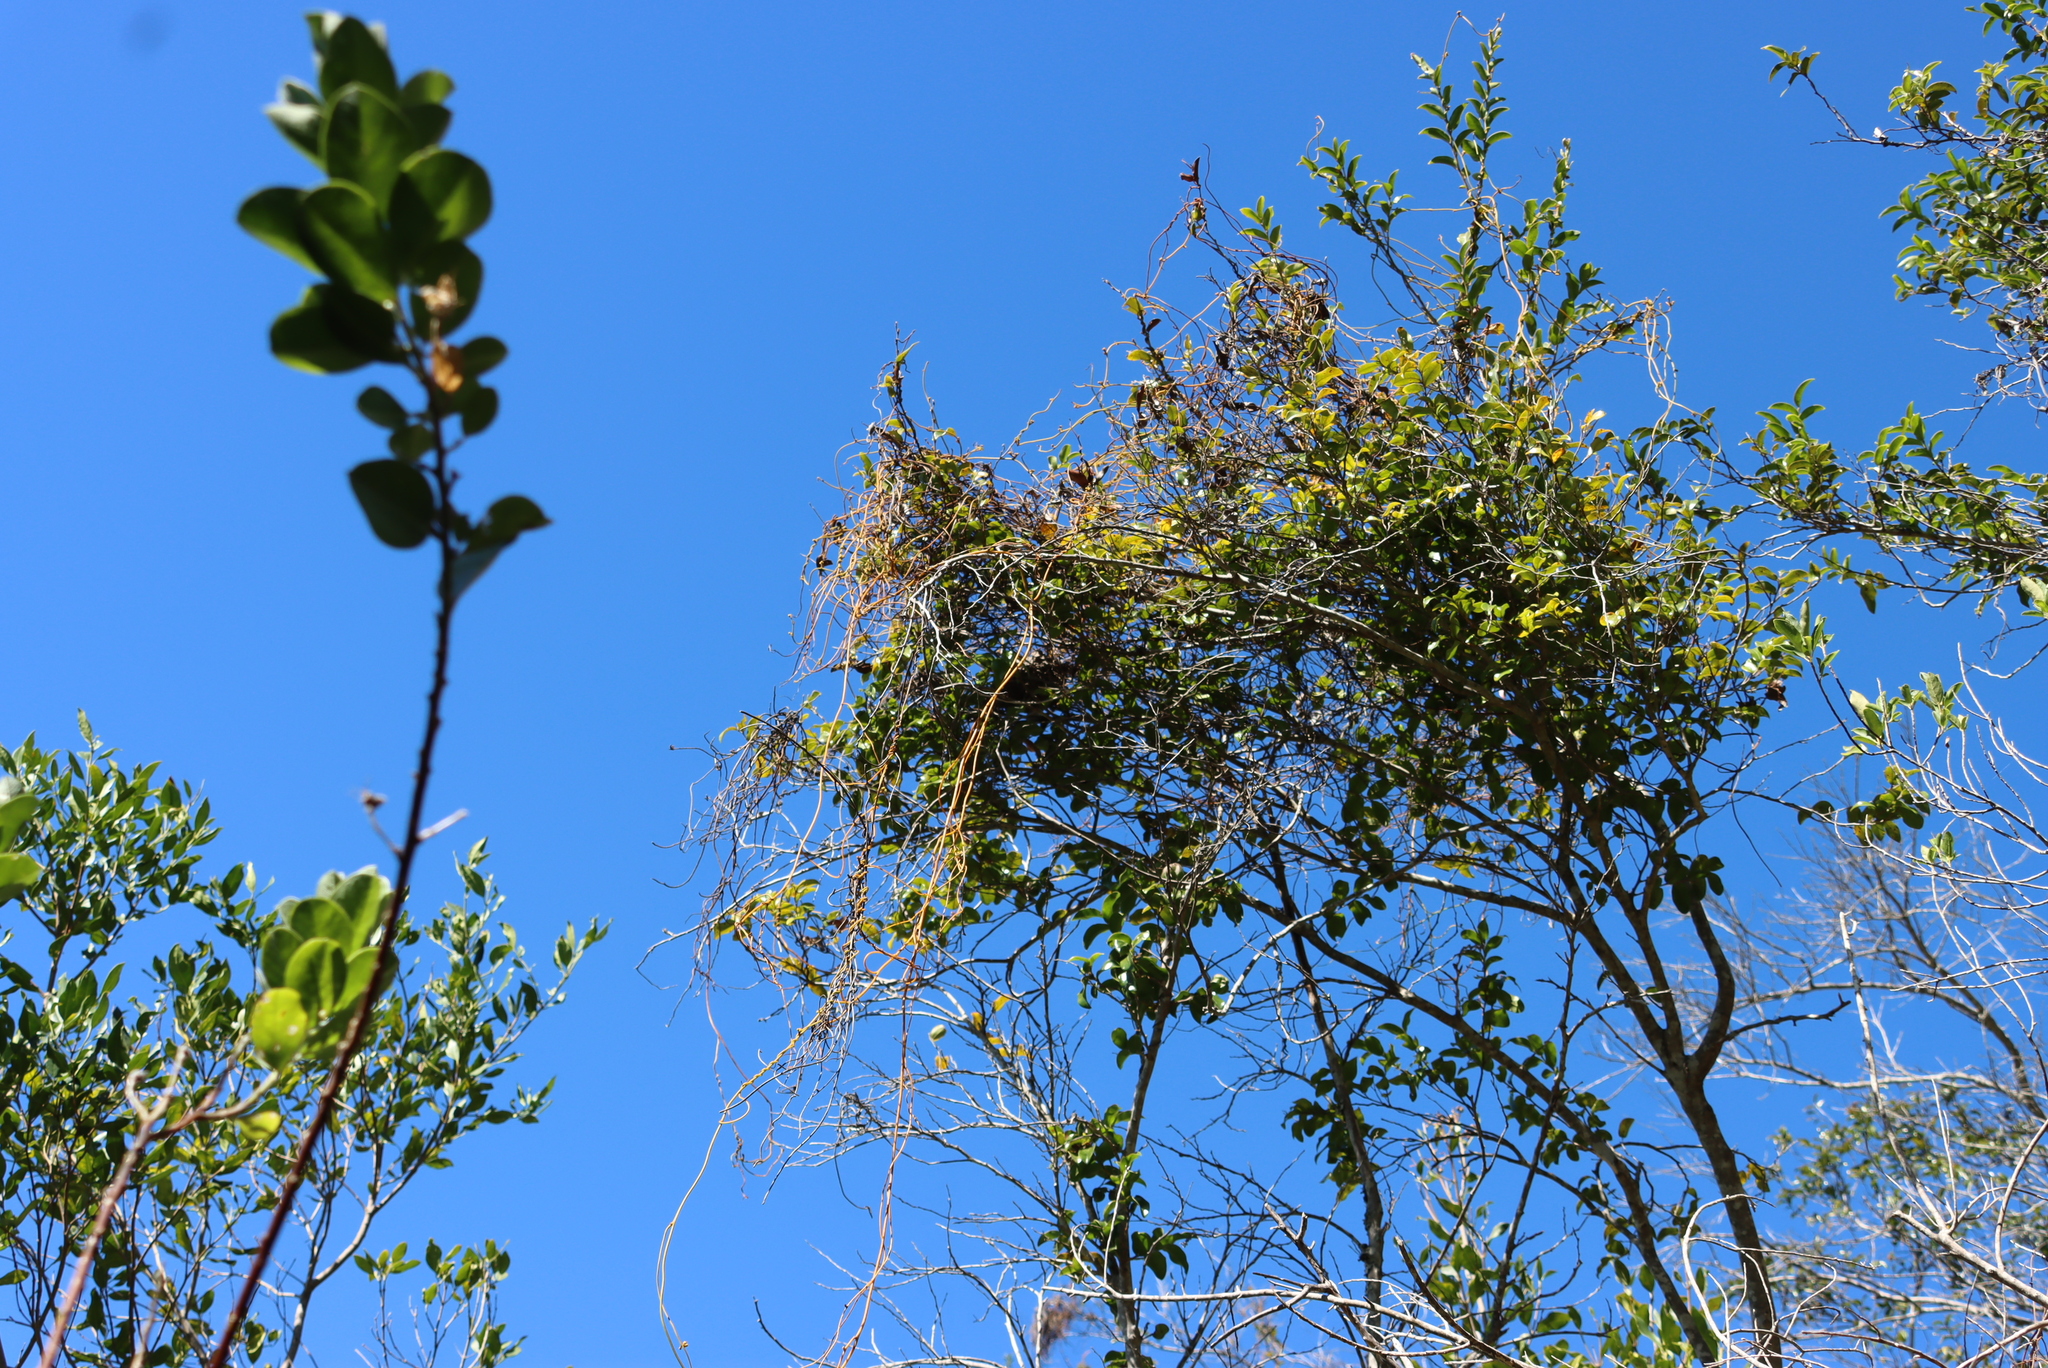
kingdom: Plantae
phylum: Tracheophyta
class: Magnoliopsida
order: Laurales
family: Lauraceae
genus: Cassytha
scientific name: Cassytha ciliolata
